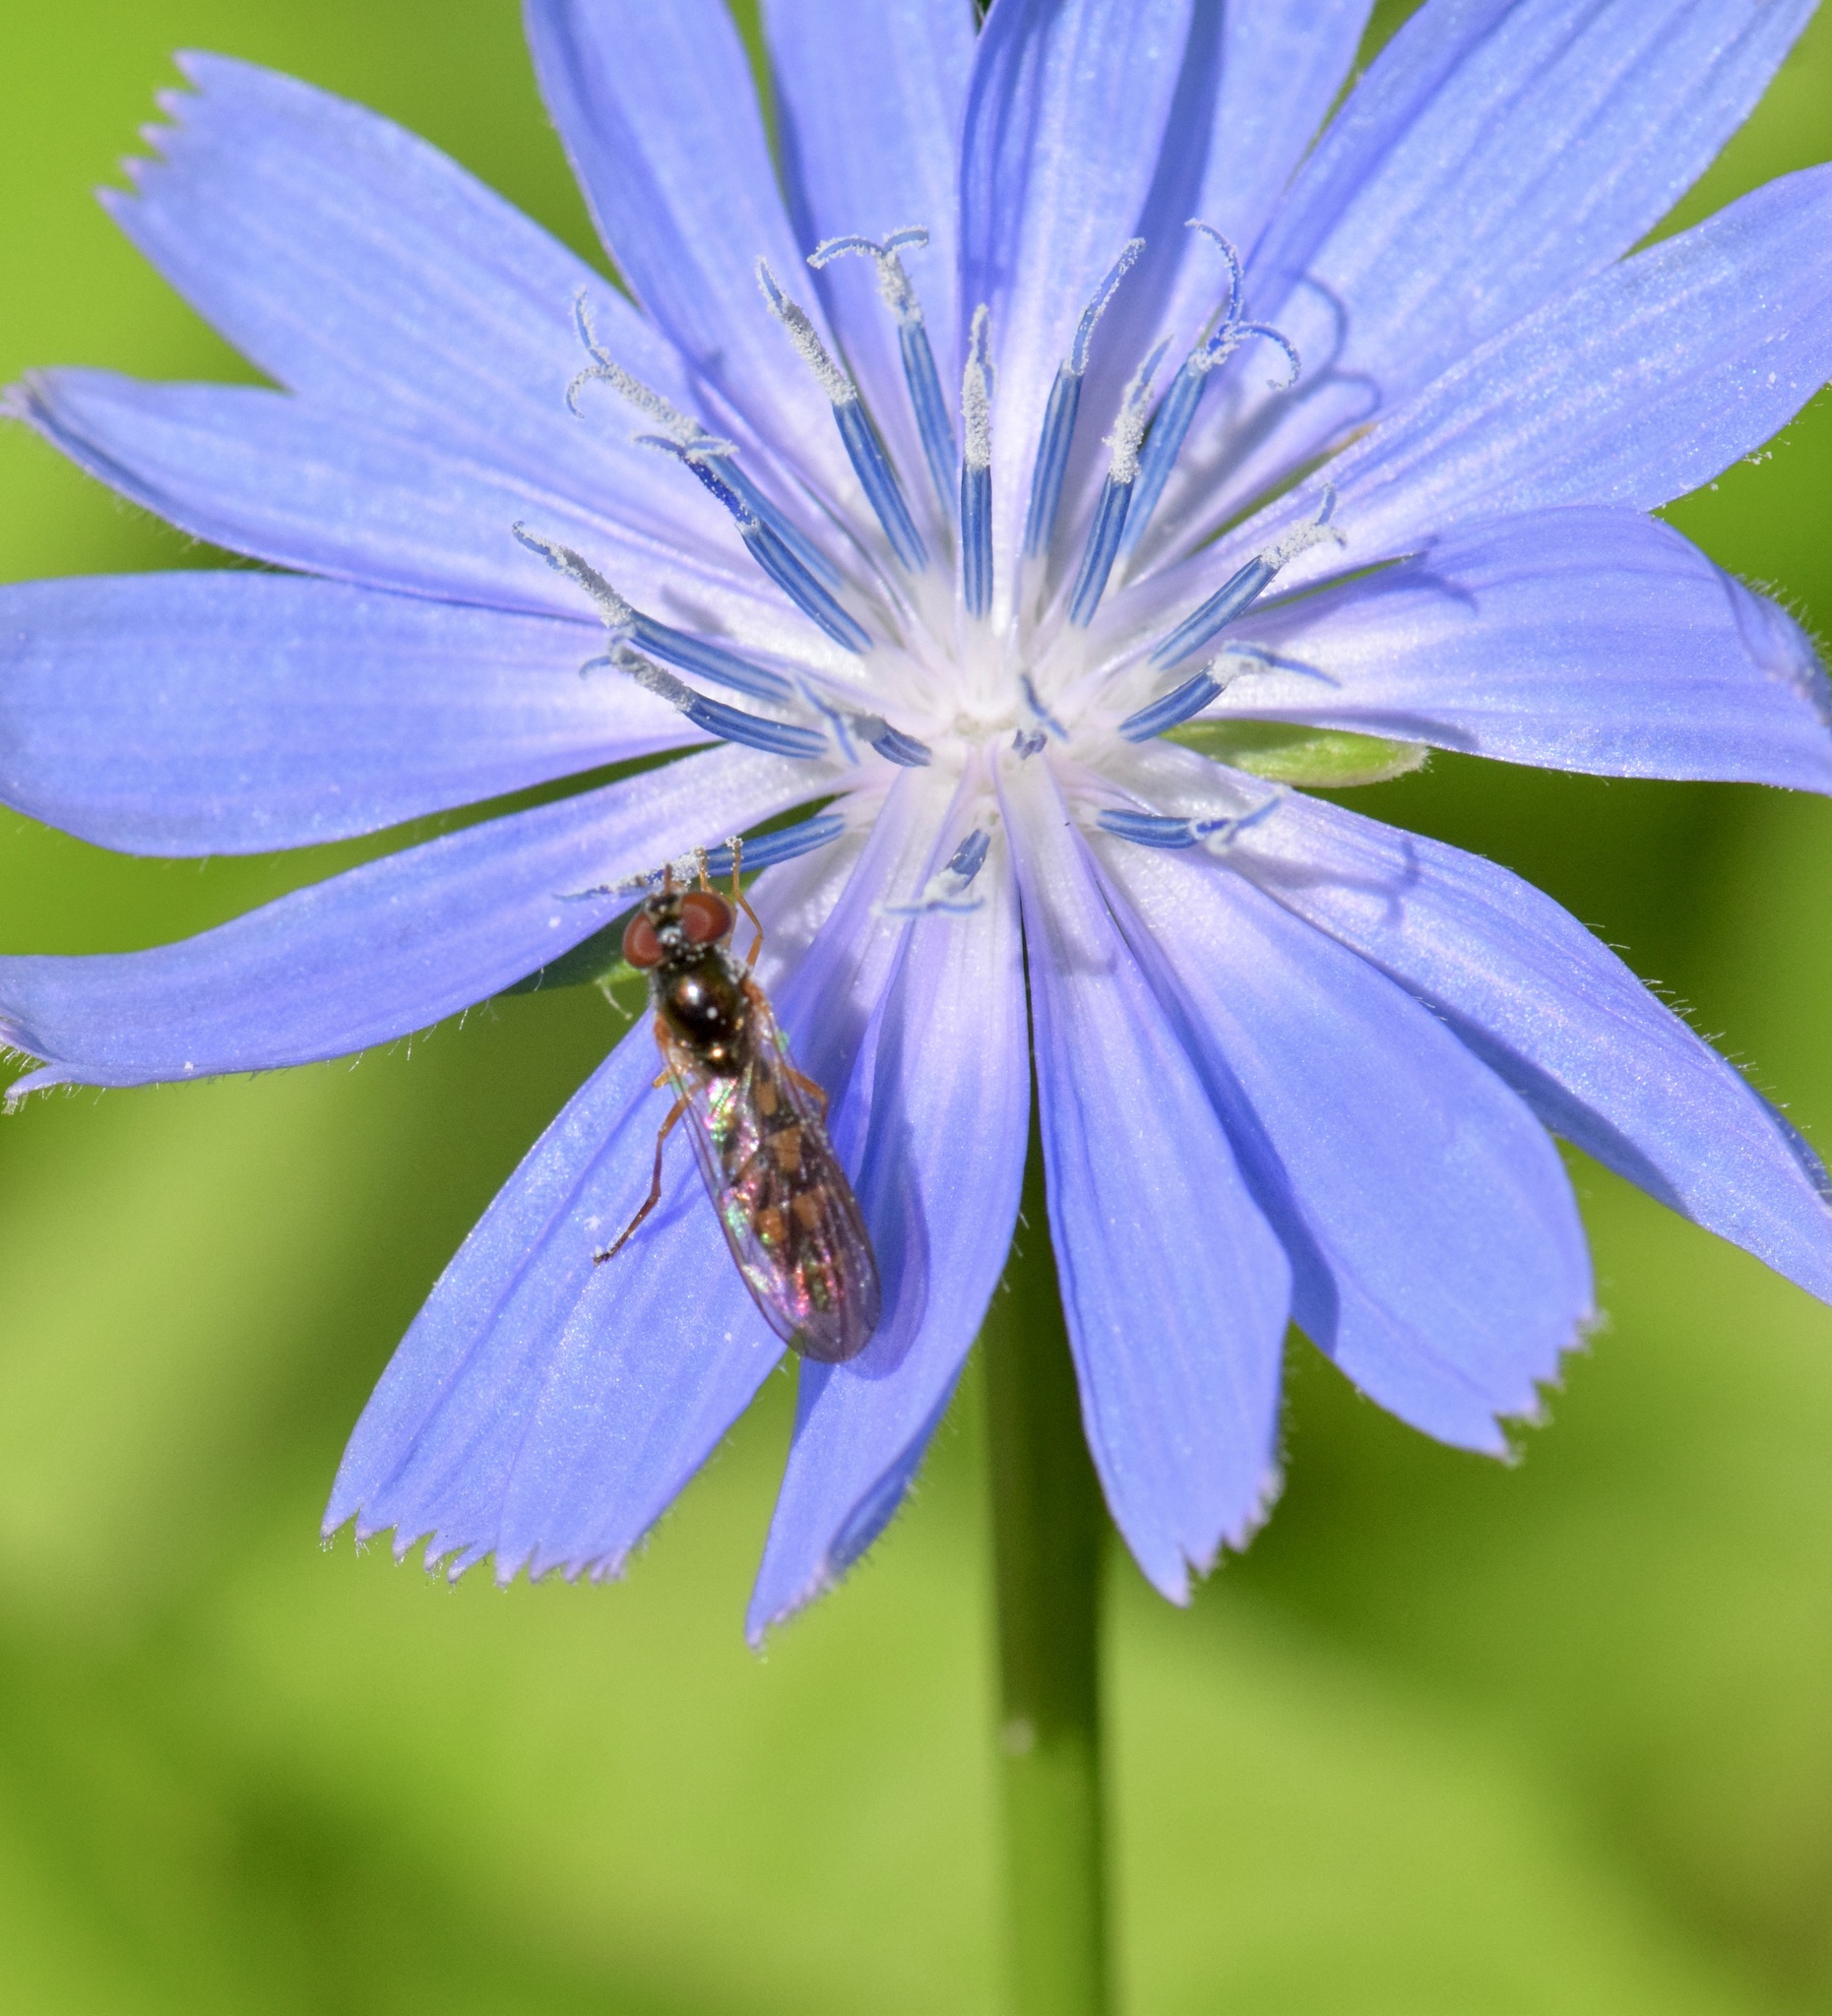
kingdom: Animalia
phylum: Arthropoda
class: Insecta
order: Diptera
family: Syrphidae
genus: Melanostoma
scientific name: Melanostoma mellina
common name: Hover fly
